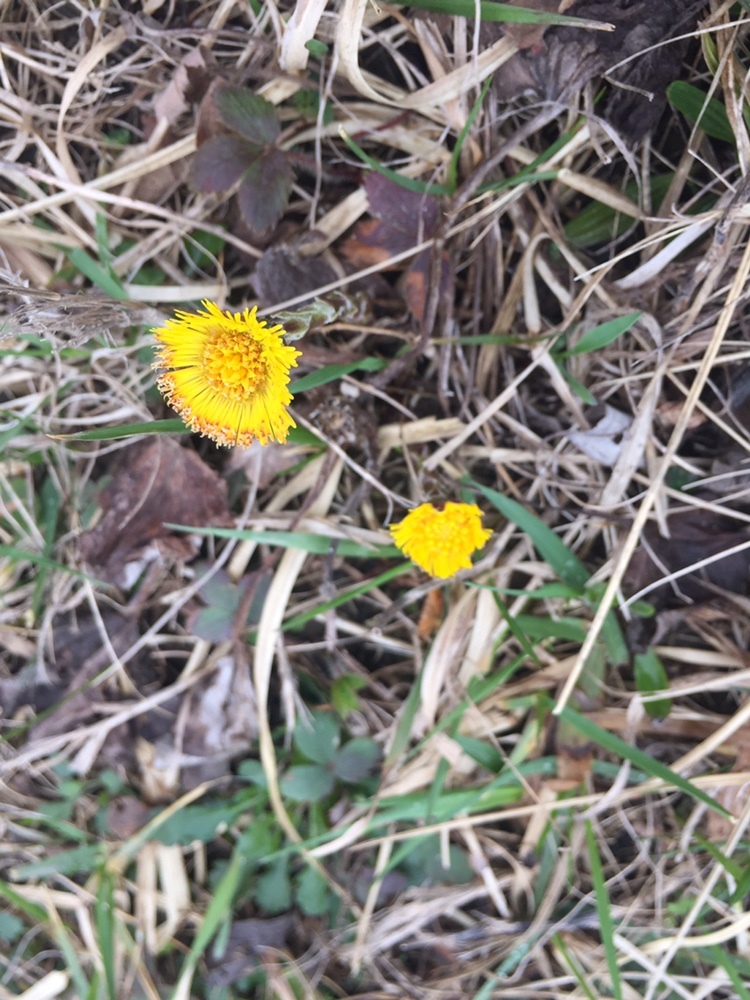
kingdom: Plantae
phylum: Tracheophyta
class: Magnoliopsida
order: Asterales
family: Asteraceae
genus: Tussilago
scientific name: Tussilago farfara
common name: Coltsfoot
